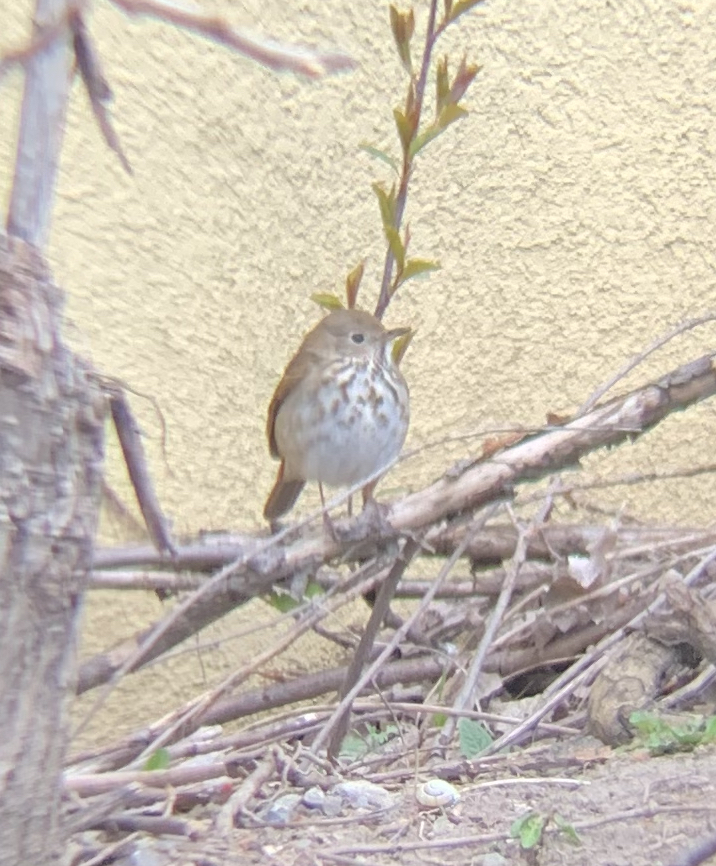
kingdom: Animalia
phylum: Chordata
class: Aves
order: Passeriformes
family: Turdidae
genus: Catharus
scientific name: Catharus guttatus
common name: Hermit thrush
